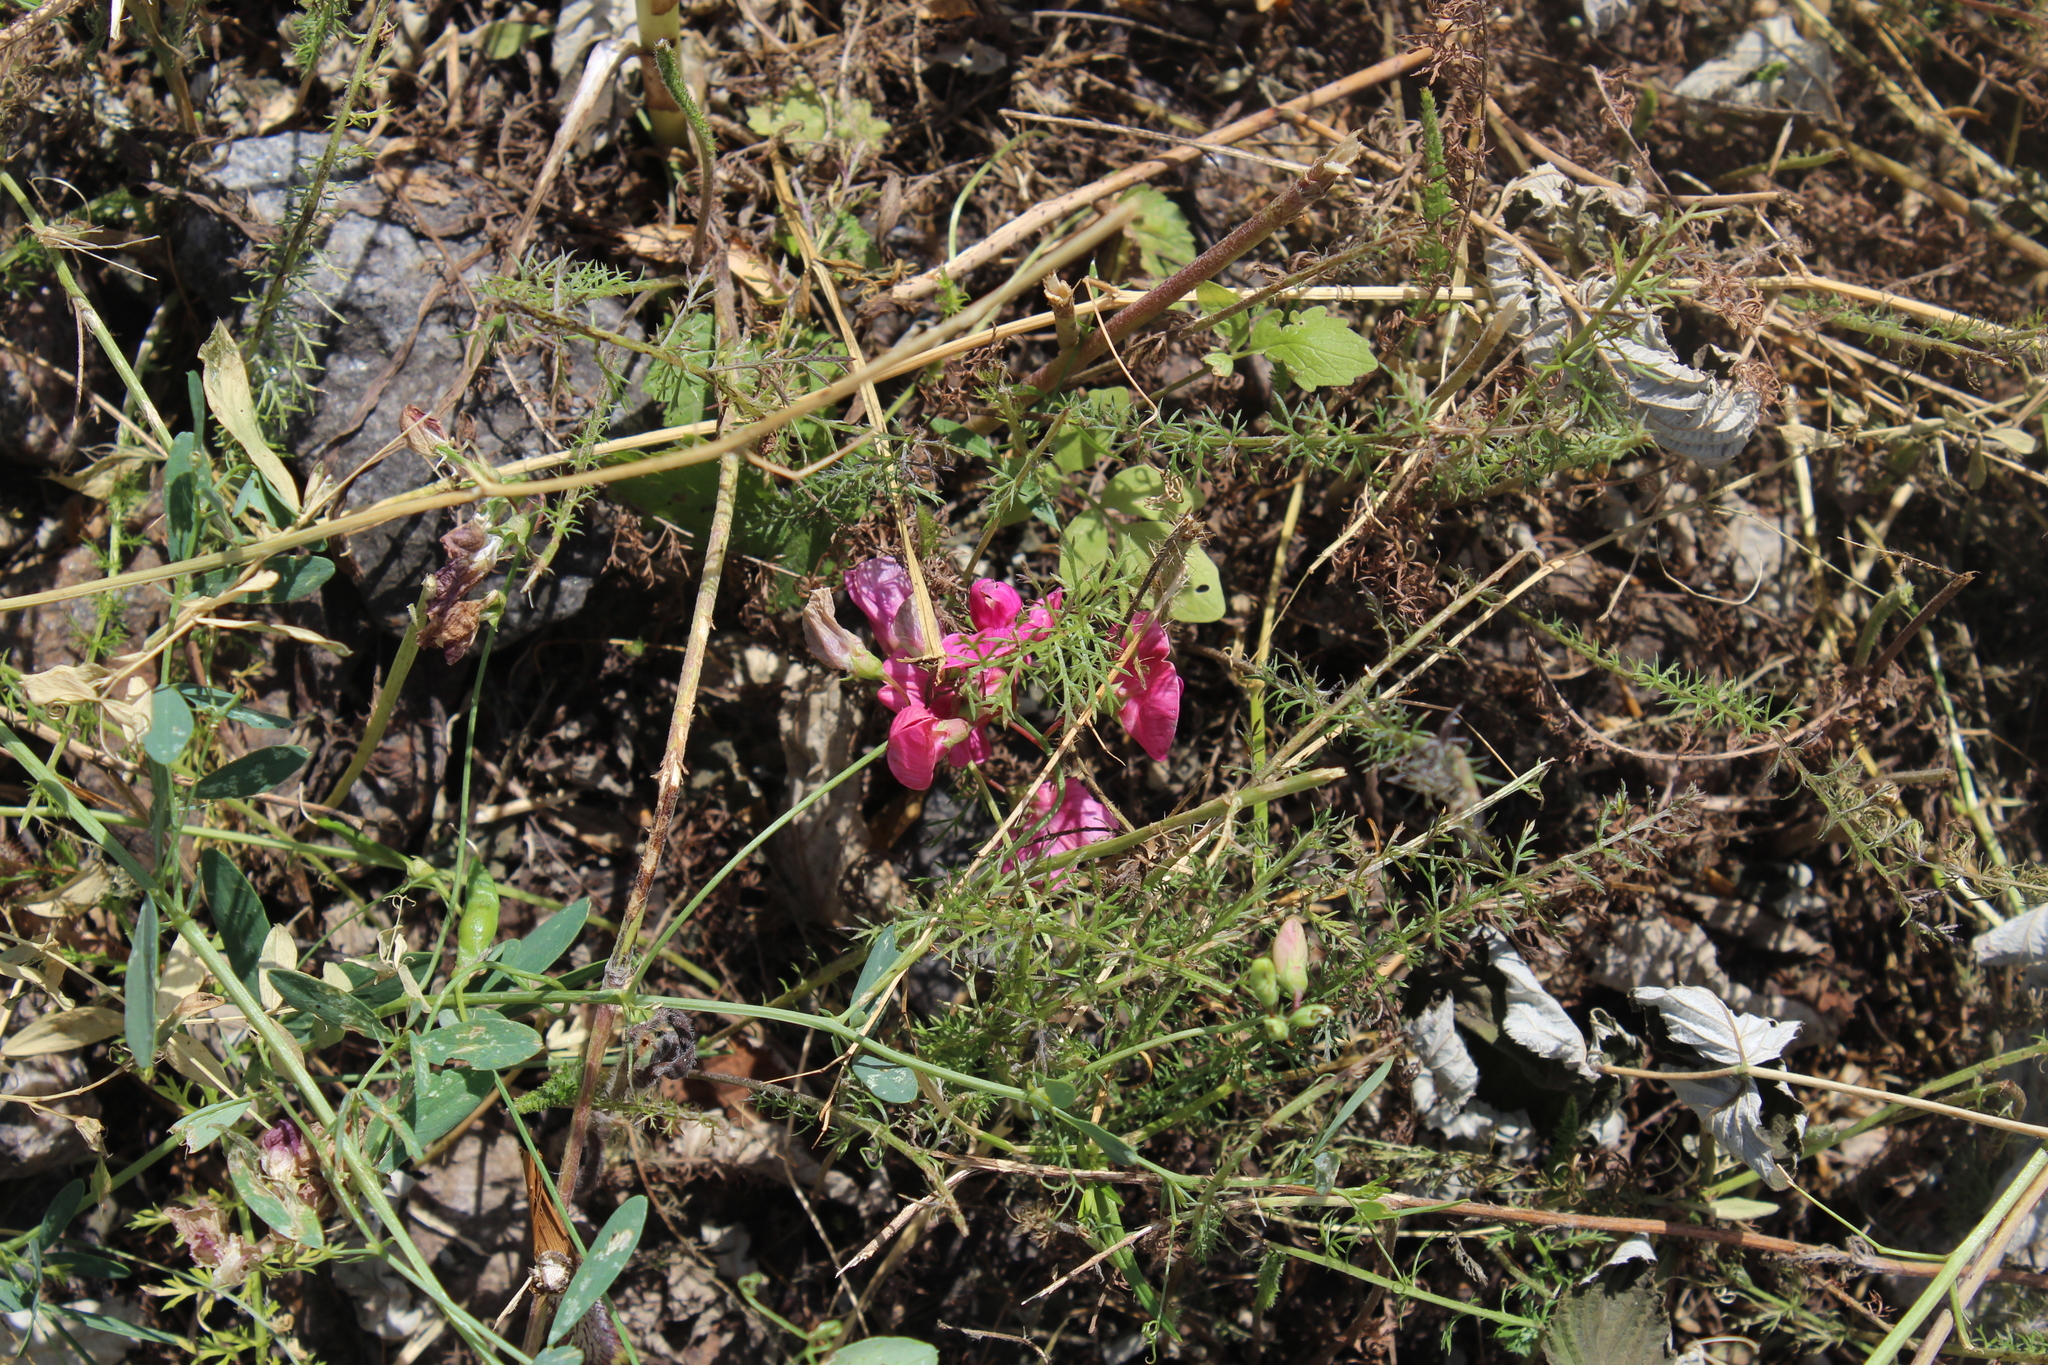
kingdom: Plantae
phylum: Tracheophyta
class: Magnoliopsida
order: Fabales
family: Fabaceae
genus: Lathyrus
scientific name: Lathyrus tuberosus
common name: Tuberous pea
